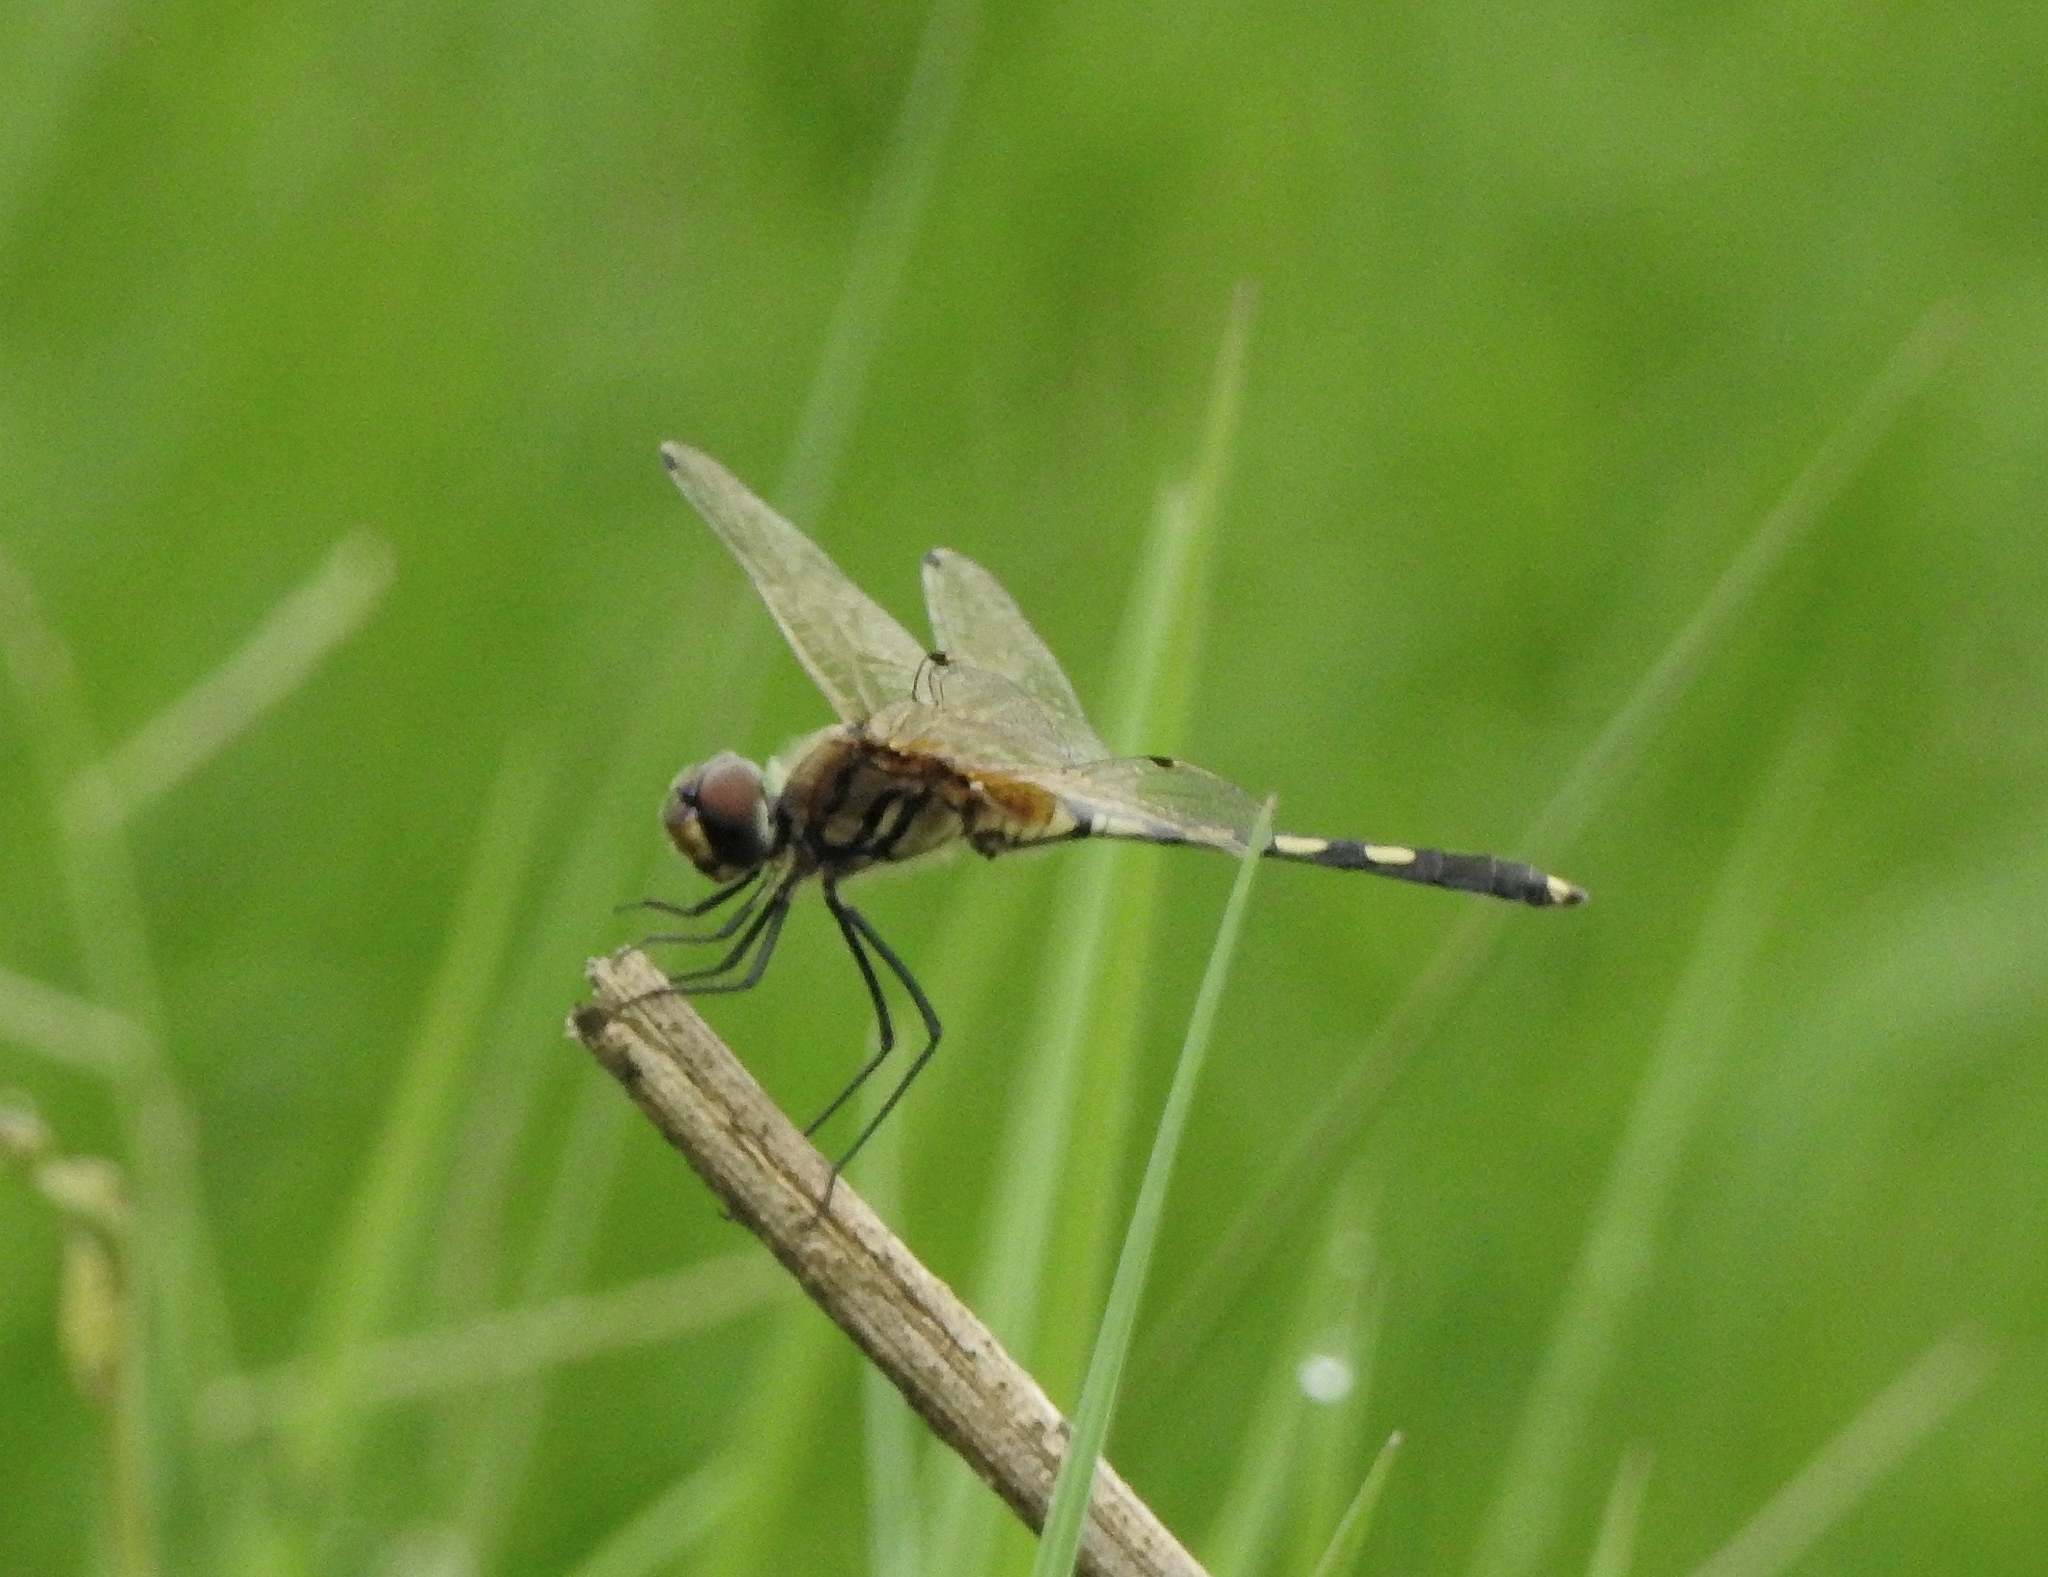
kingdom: Animalia
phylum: Arthropoda
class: Insecta
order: Odonata
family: Libellulidae
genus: Trithemis
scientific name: Trithemis pallidinervis
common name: Dancing dropwing
